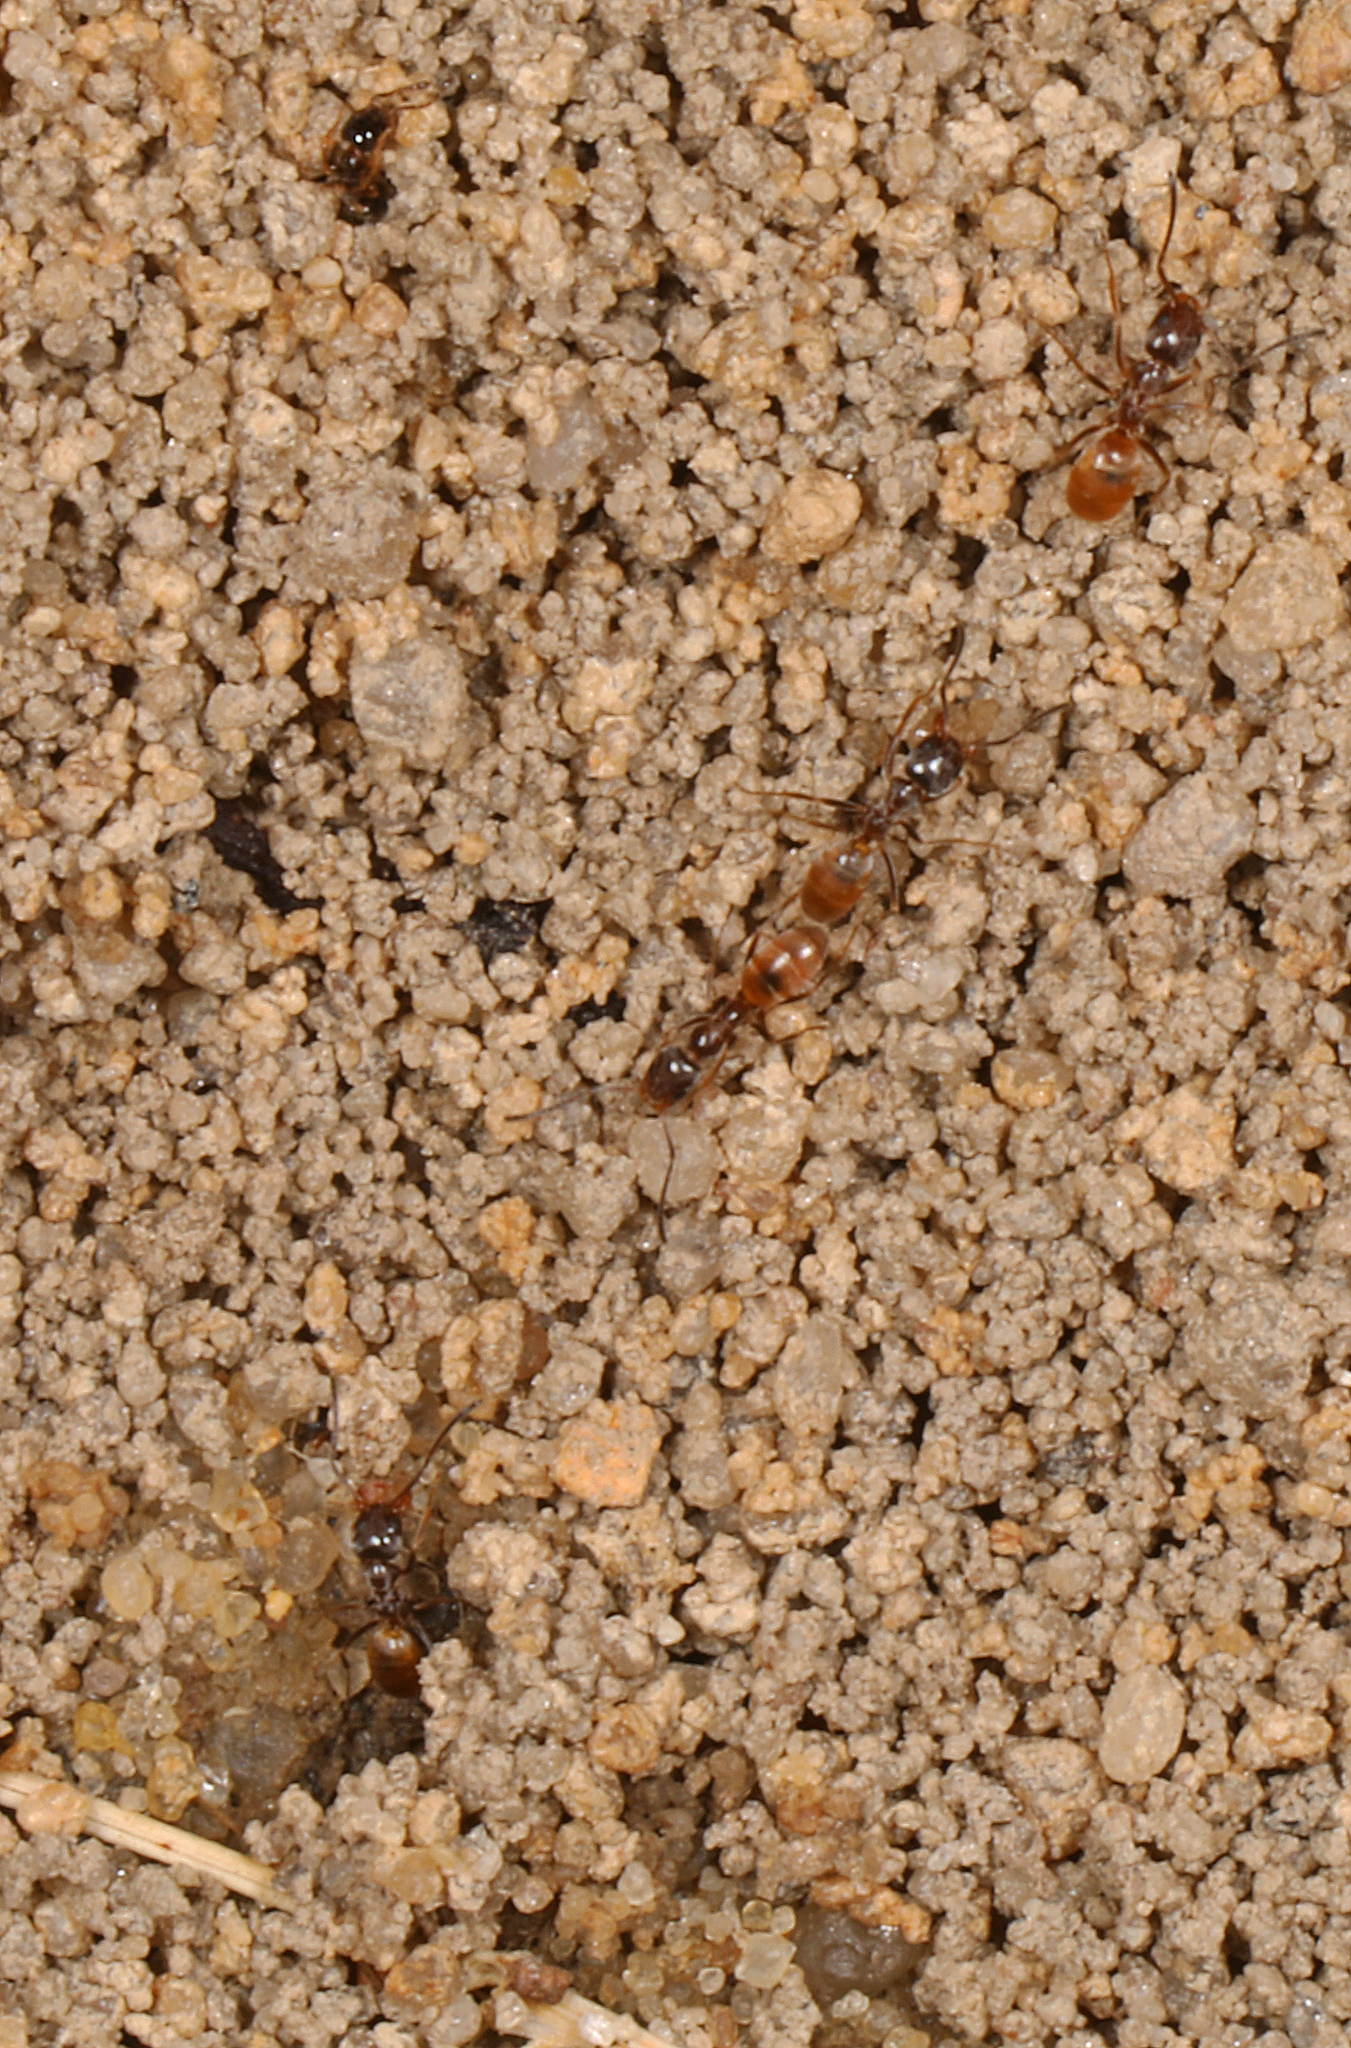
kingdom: Animalia
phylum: Arthropoda
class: Insecta
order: Hymenoptera
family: Formicidae
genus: Forelius
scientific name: Forelius pruinosus
